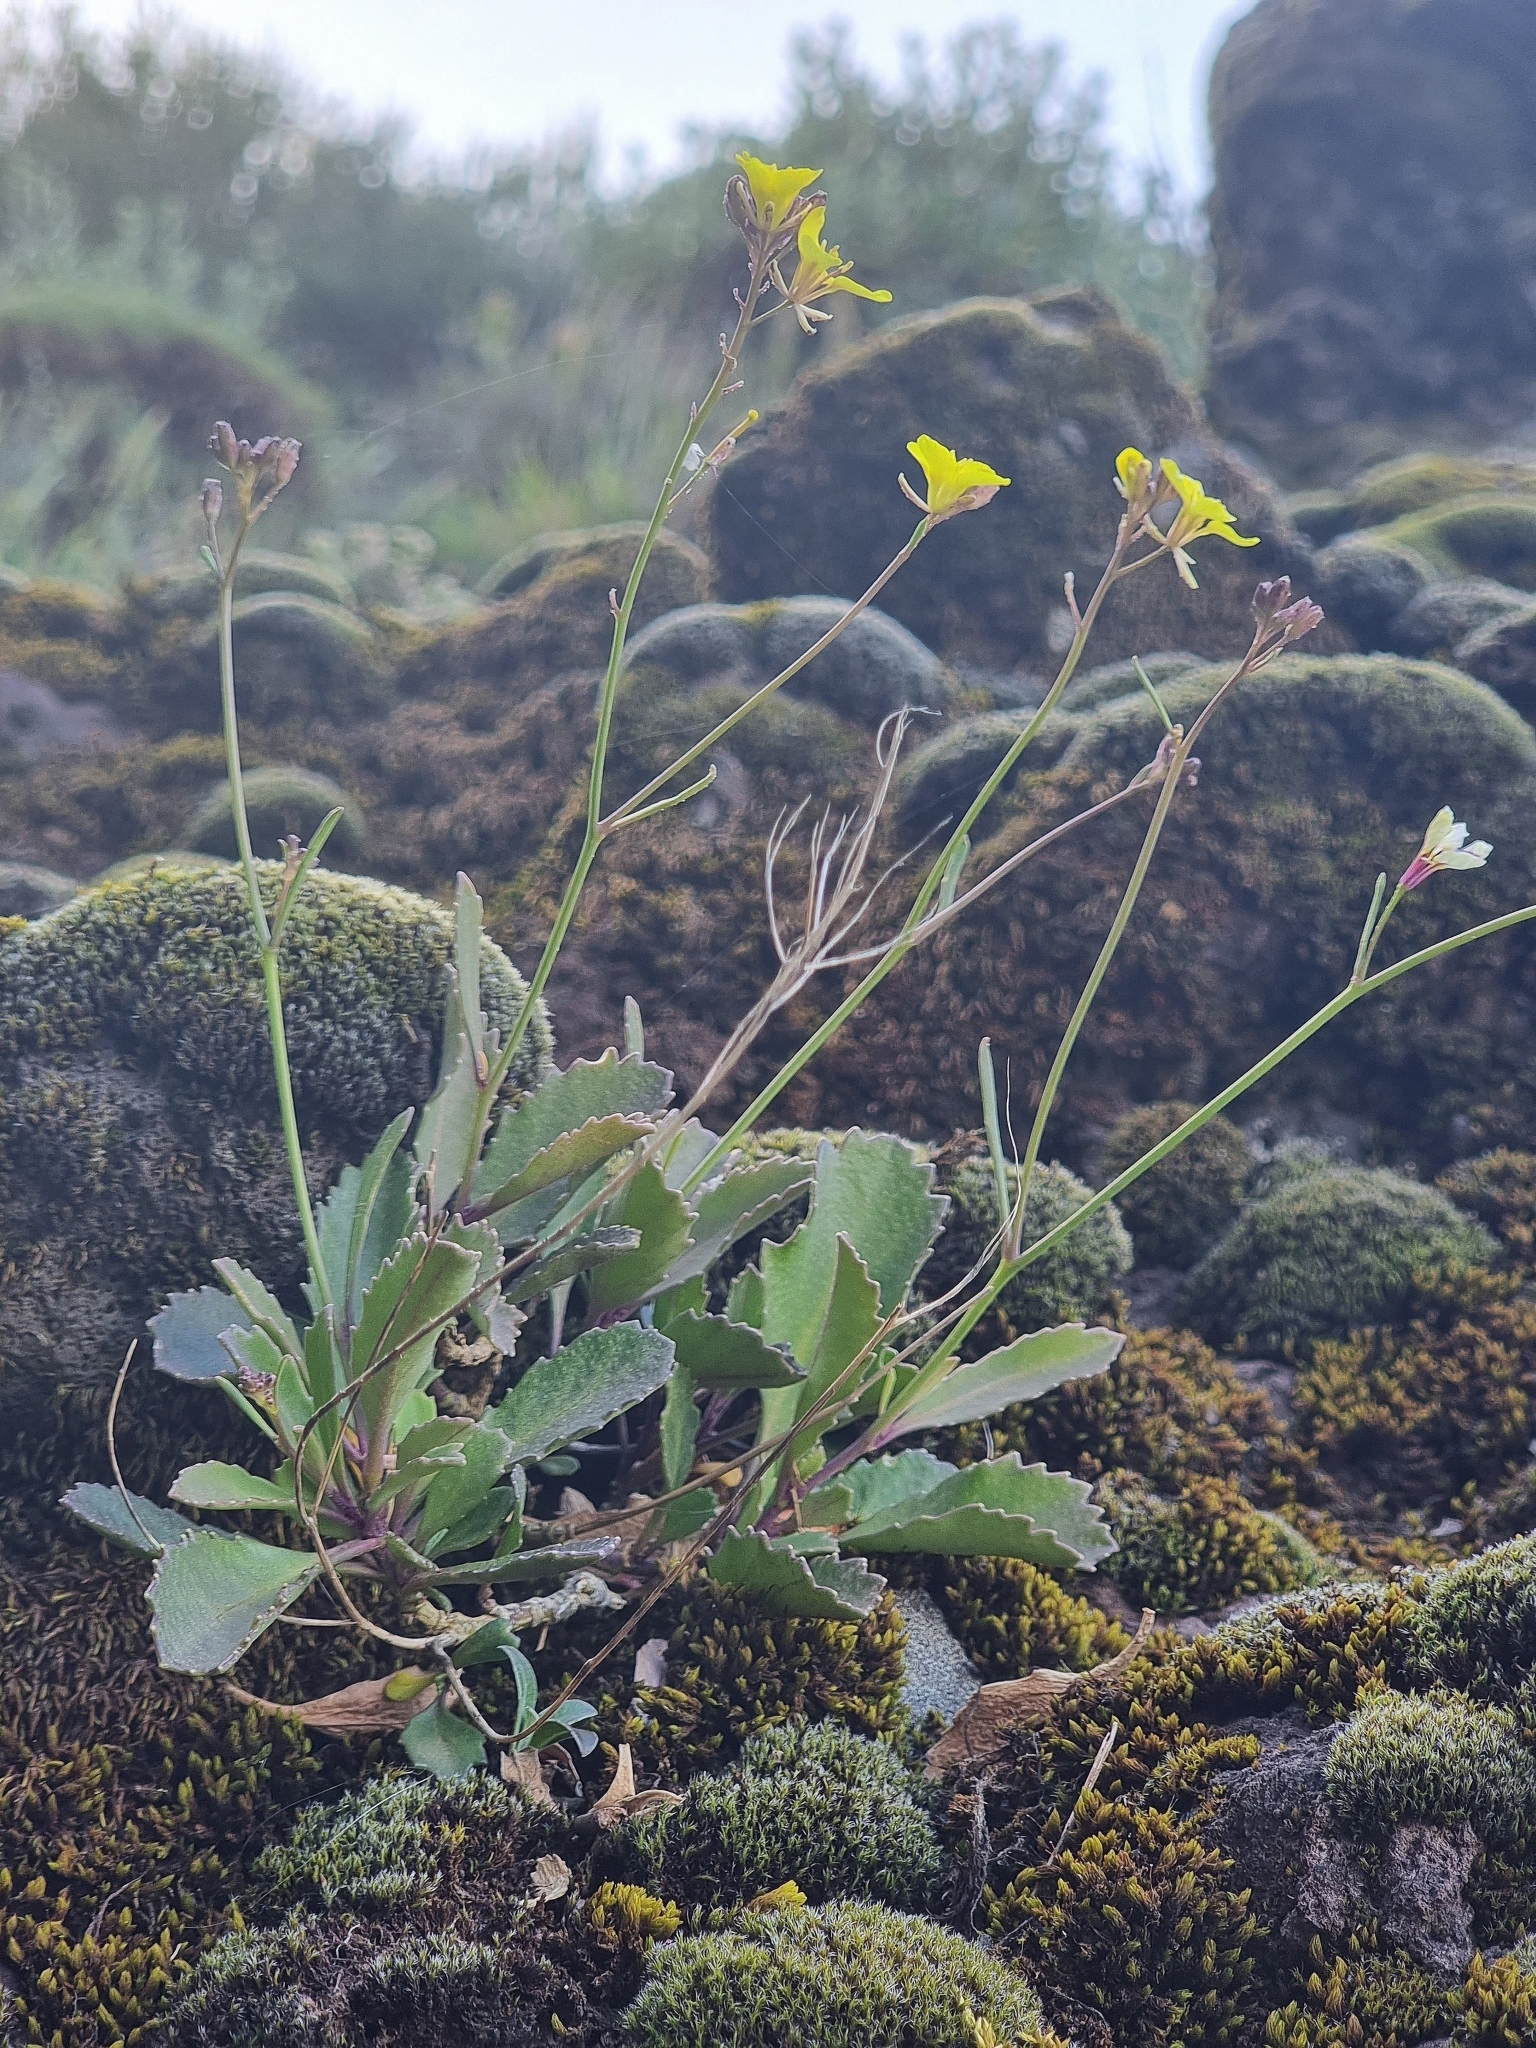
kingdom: Plantae
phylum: Tracheophyta
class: Magnoliopsida
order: Brassicales
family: Brassicaceae
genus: Sinapidendron
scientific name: Sinapidendron frutescens
